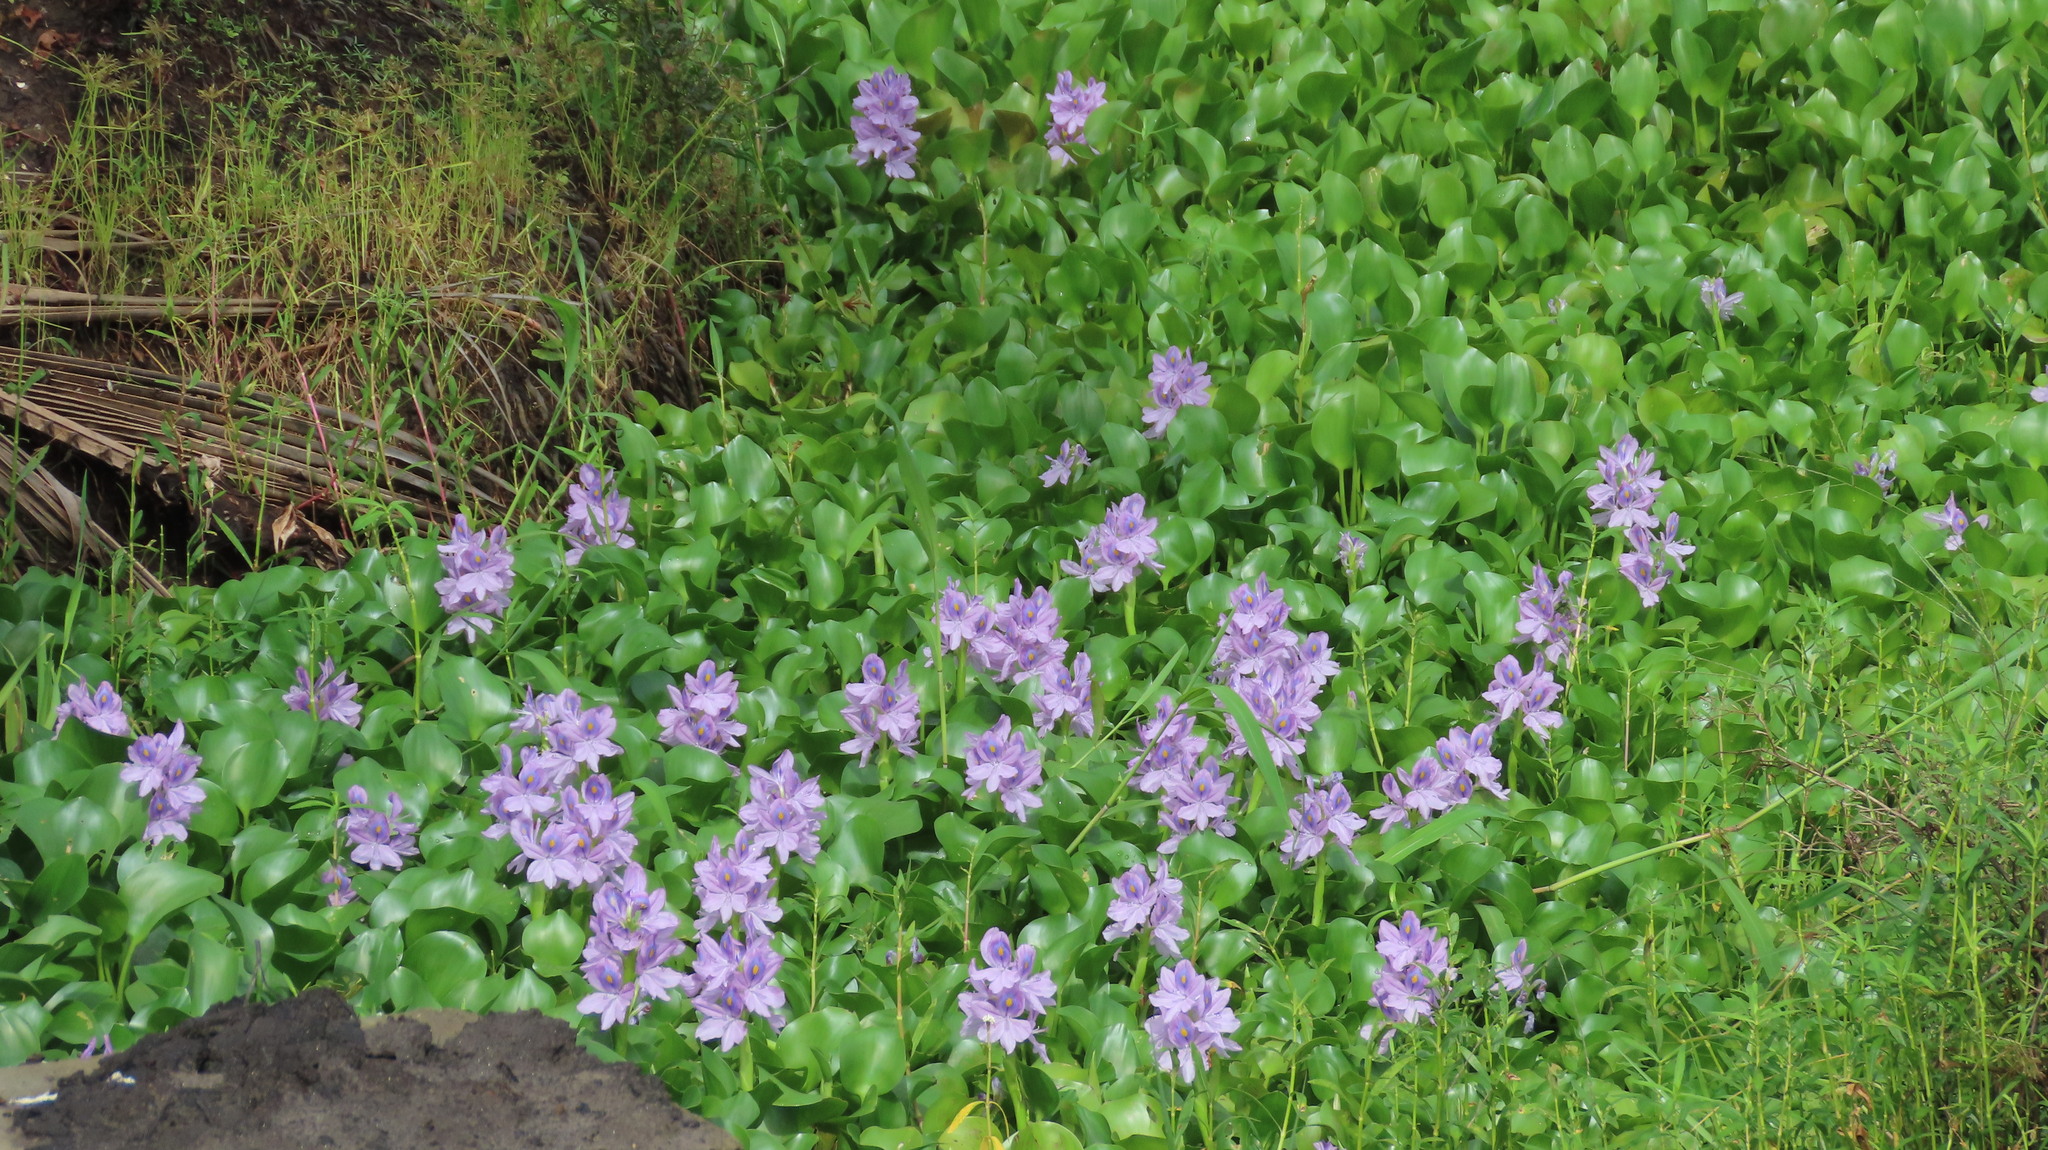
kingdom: Plantae
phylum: Tracheophyta
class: Liliopsida
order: Commelinales
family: Pontederiaceae
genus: Pontederia
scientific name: Pontederia crassipes
